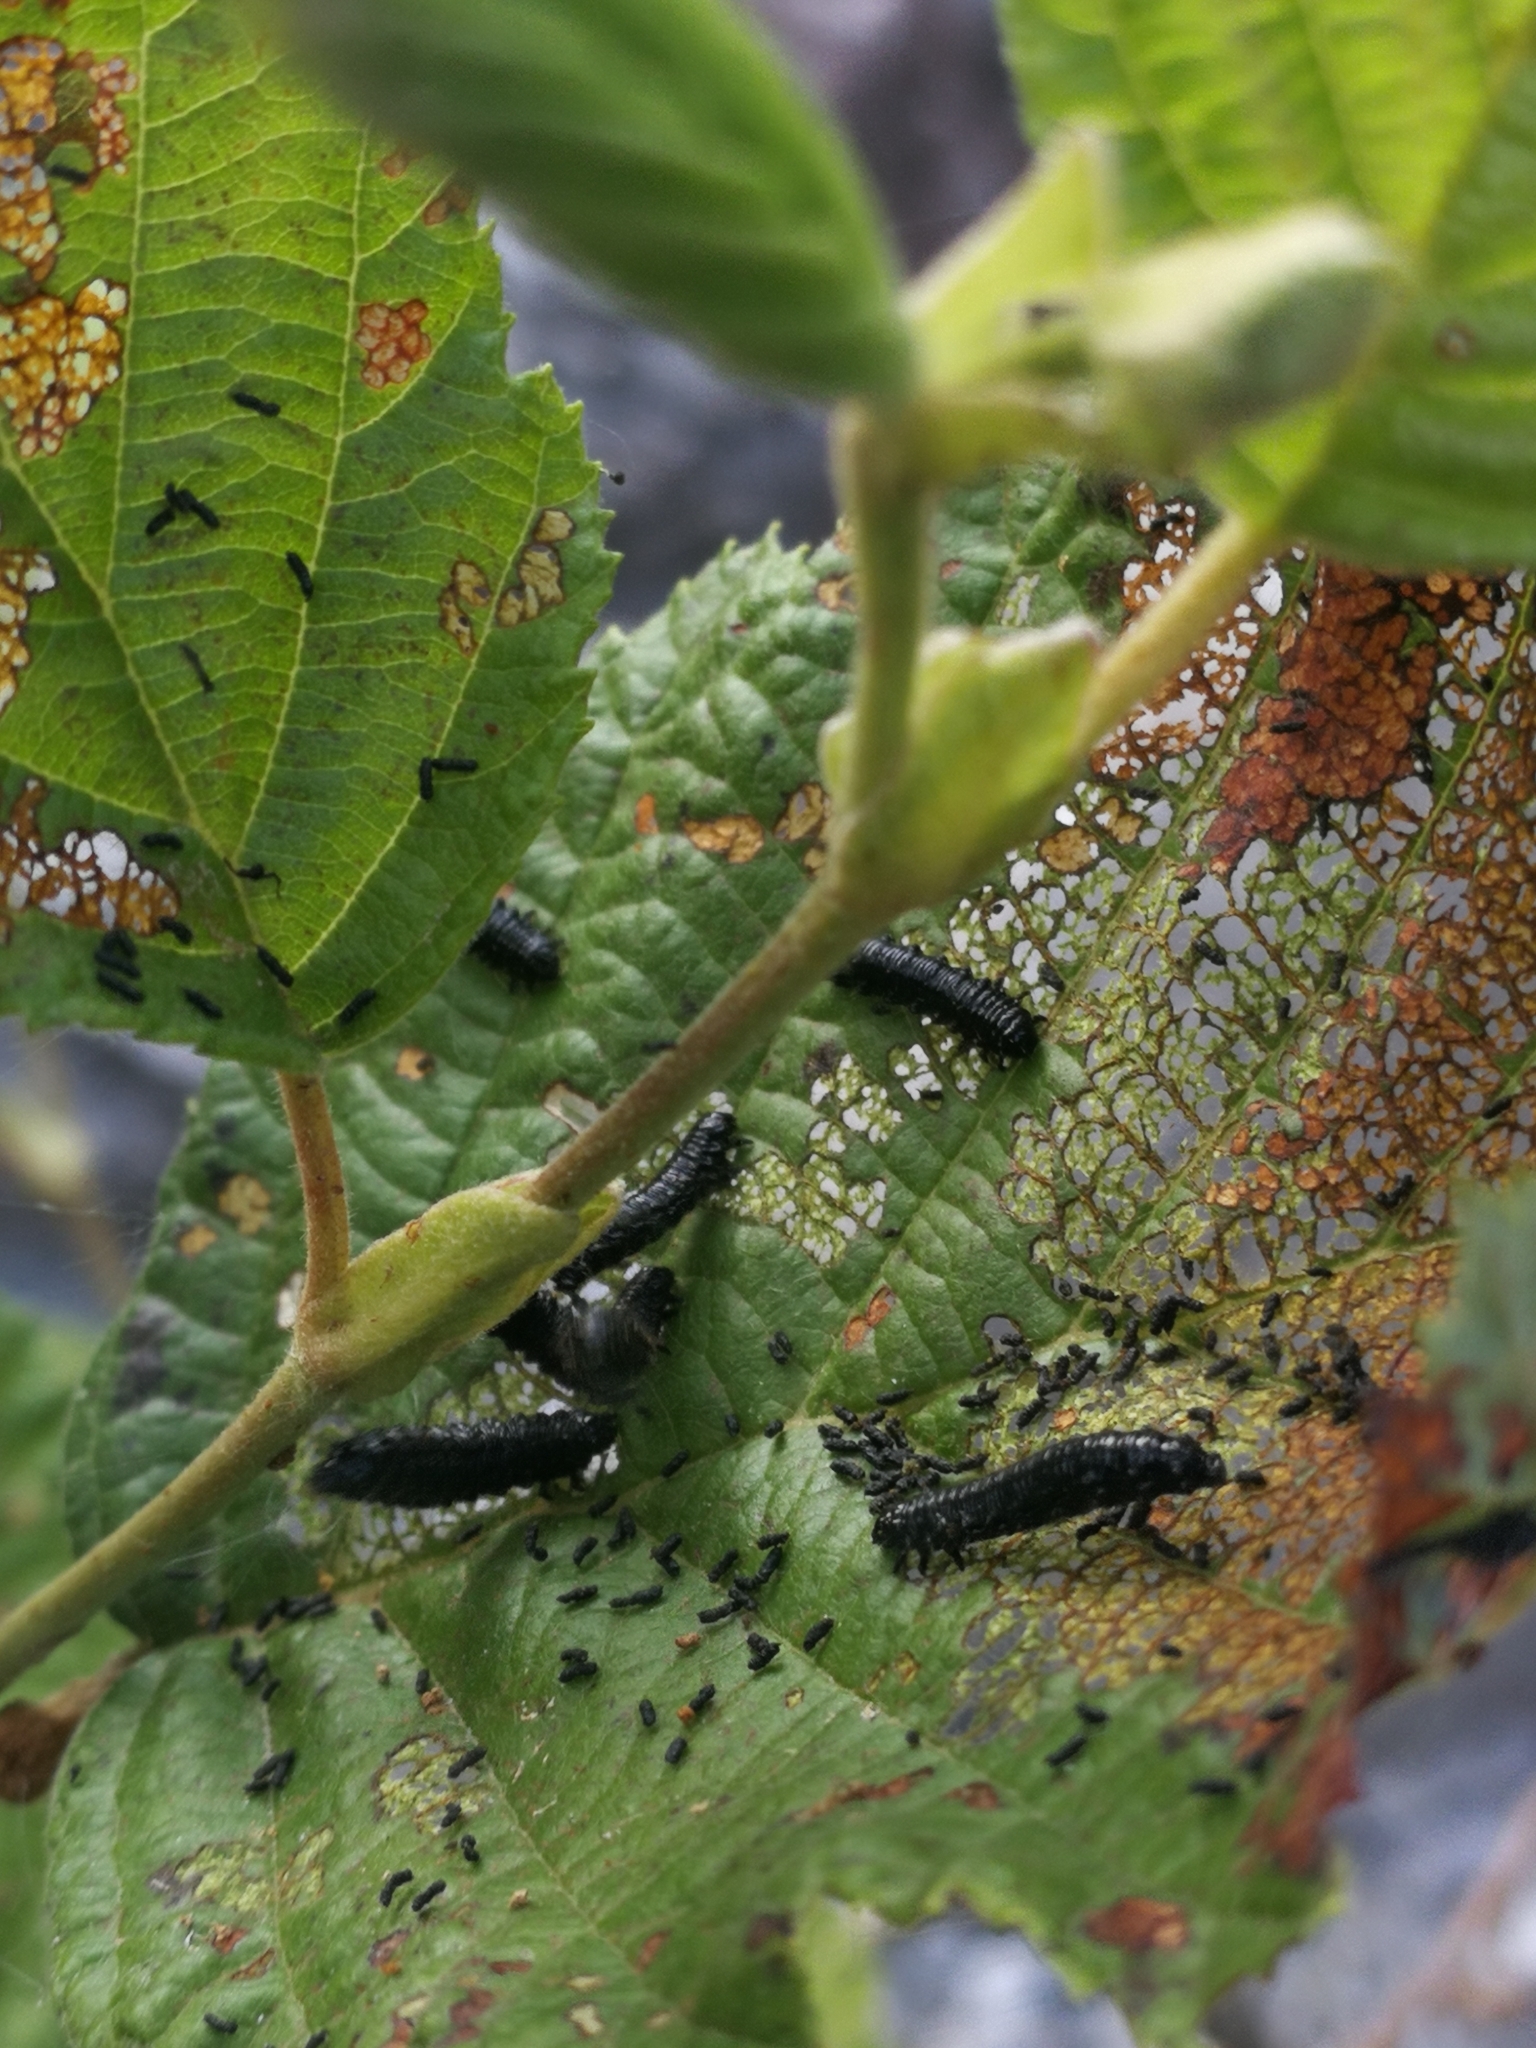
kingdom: Animalia
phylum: Arthropoda
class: Insecta
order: Coleoptera
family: Chrysomelidae
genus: Agelastica
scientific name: Agelastica alni
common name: Alder leaf beetle
